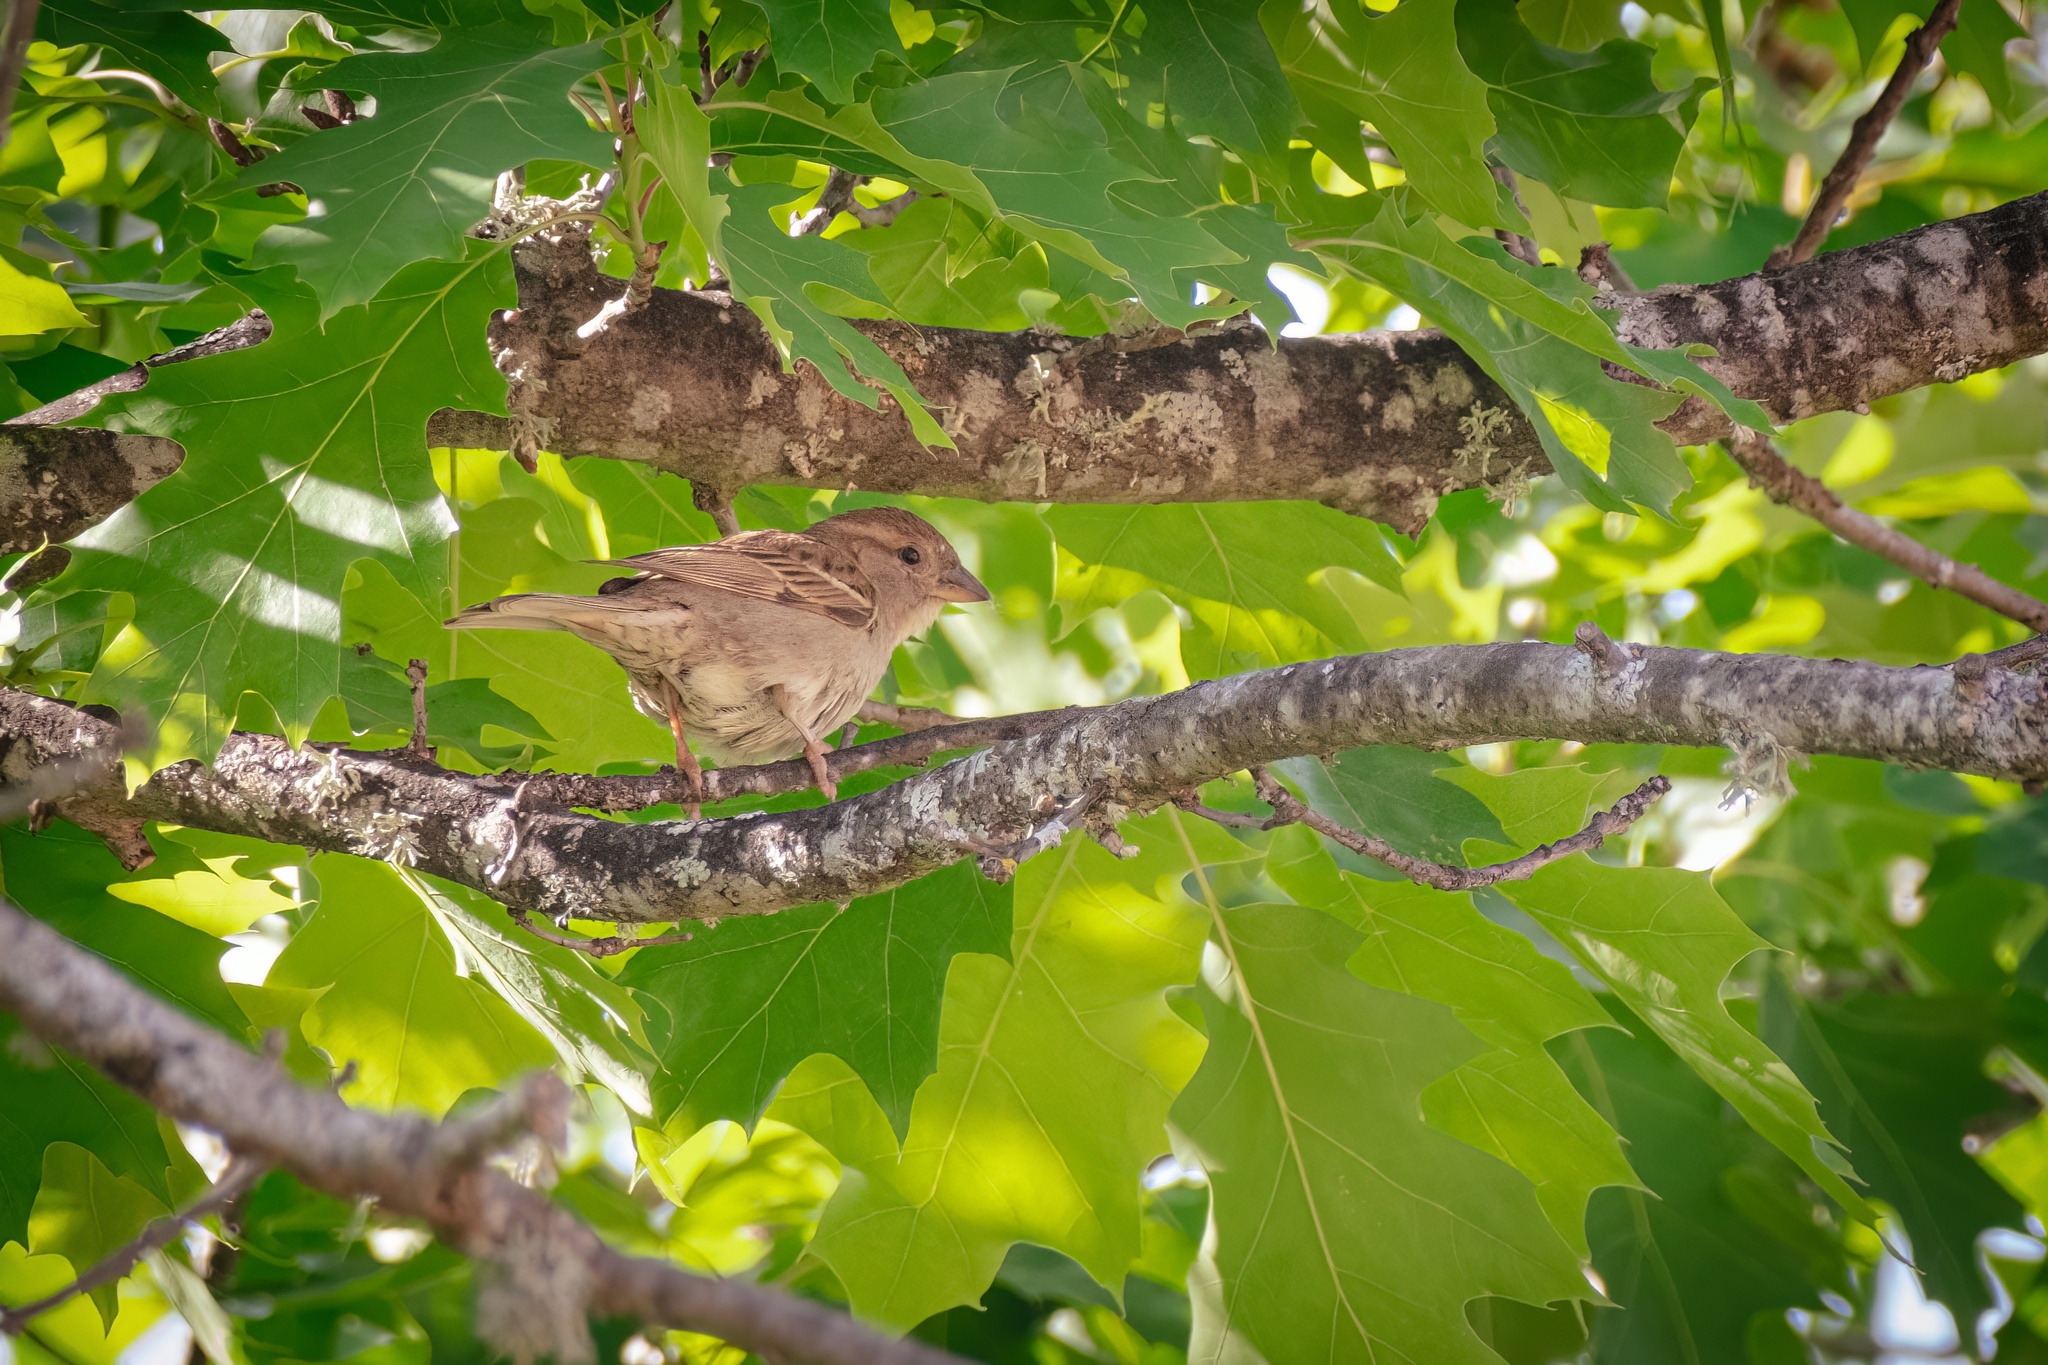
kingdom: Animalia
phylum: Chordata
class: Aves
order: Passeriformes
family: Passeridae
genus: Passer
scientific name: Passer domesticus
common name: House sparrow
